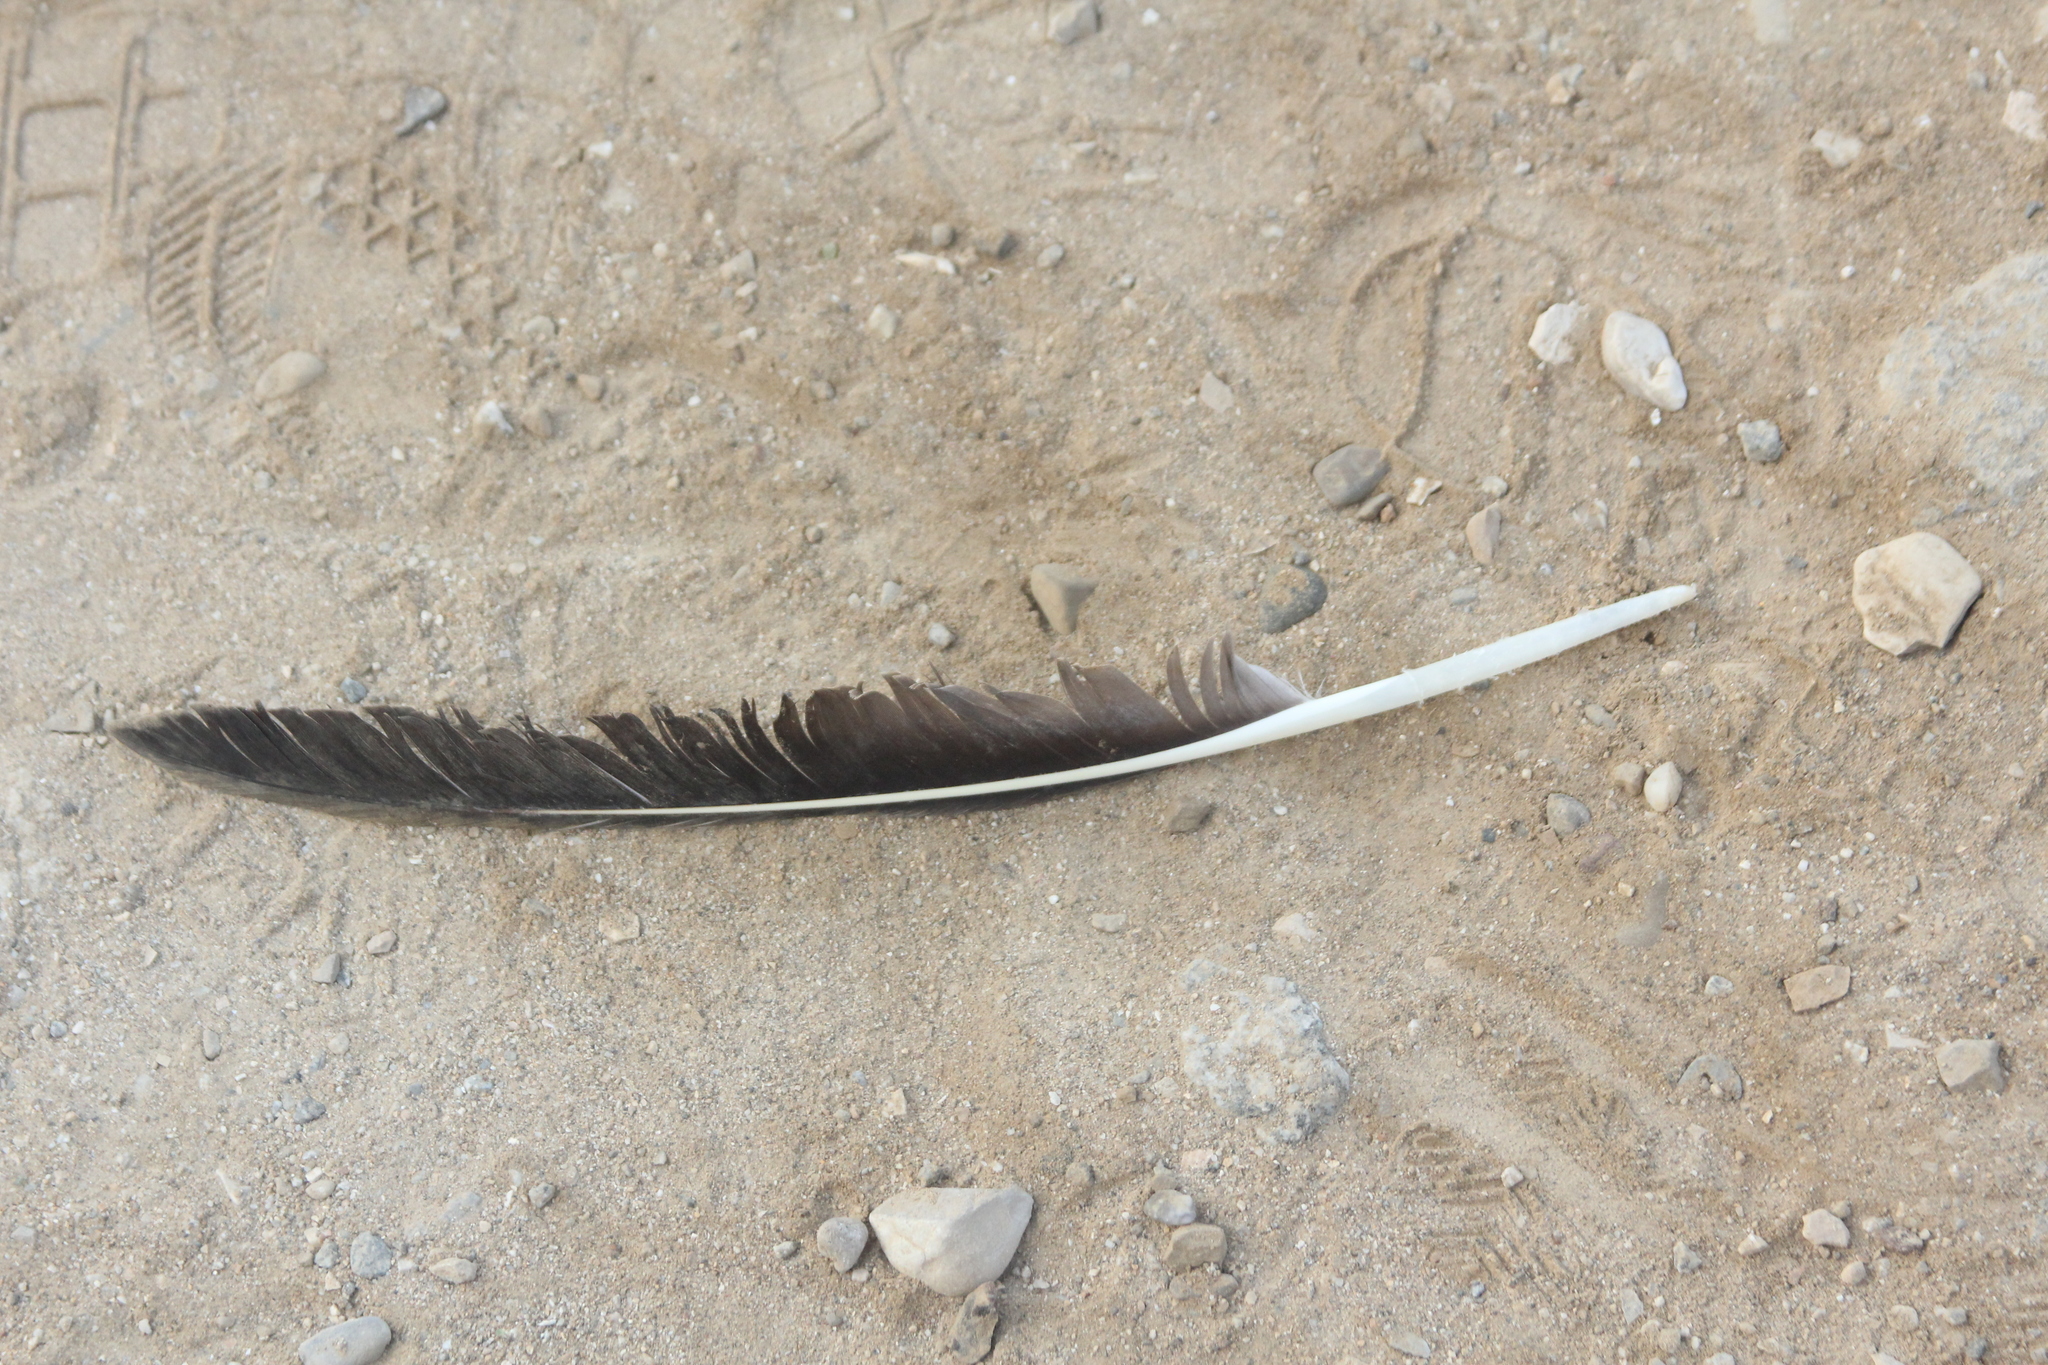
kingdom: Animalia
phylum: Chordata
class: Aves
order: Pelecaniformes
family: Pelecanidae
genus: Pelecanus
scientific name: Pelecanus occidentalis
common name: Brown pelican
